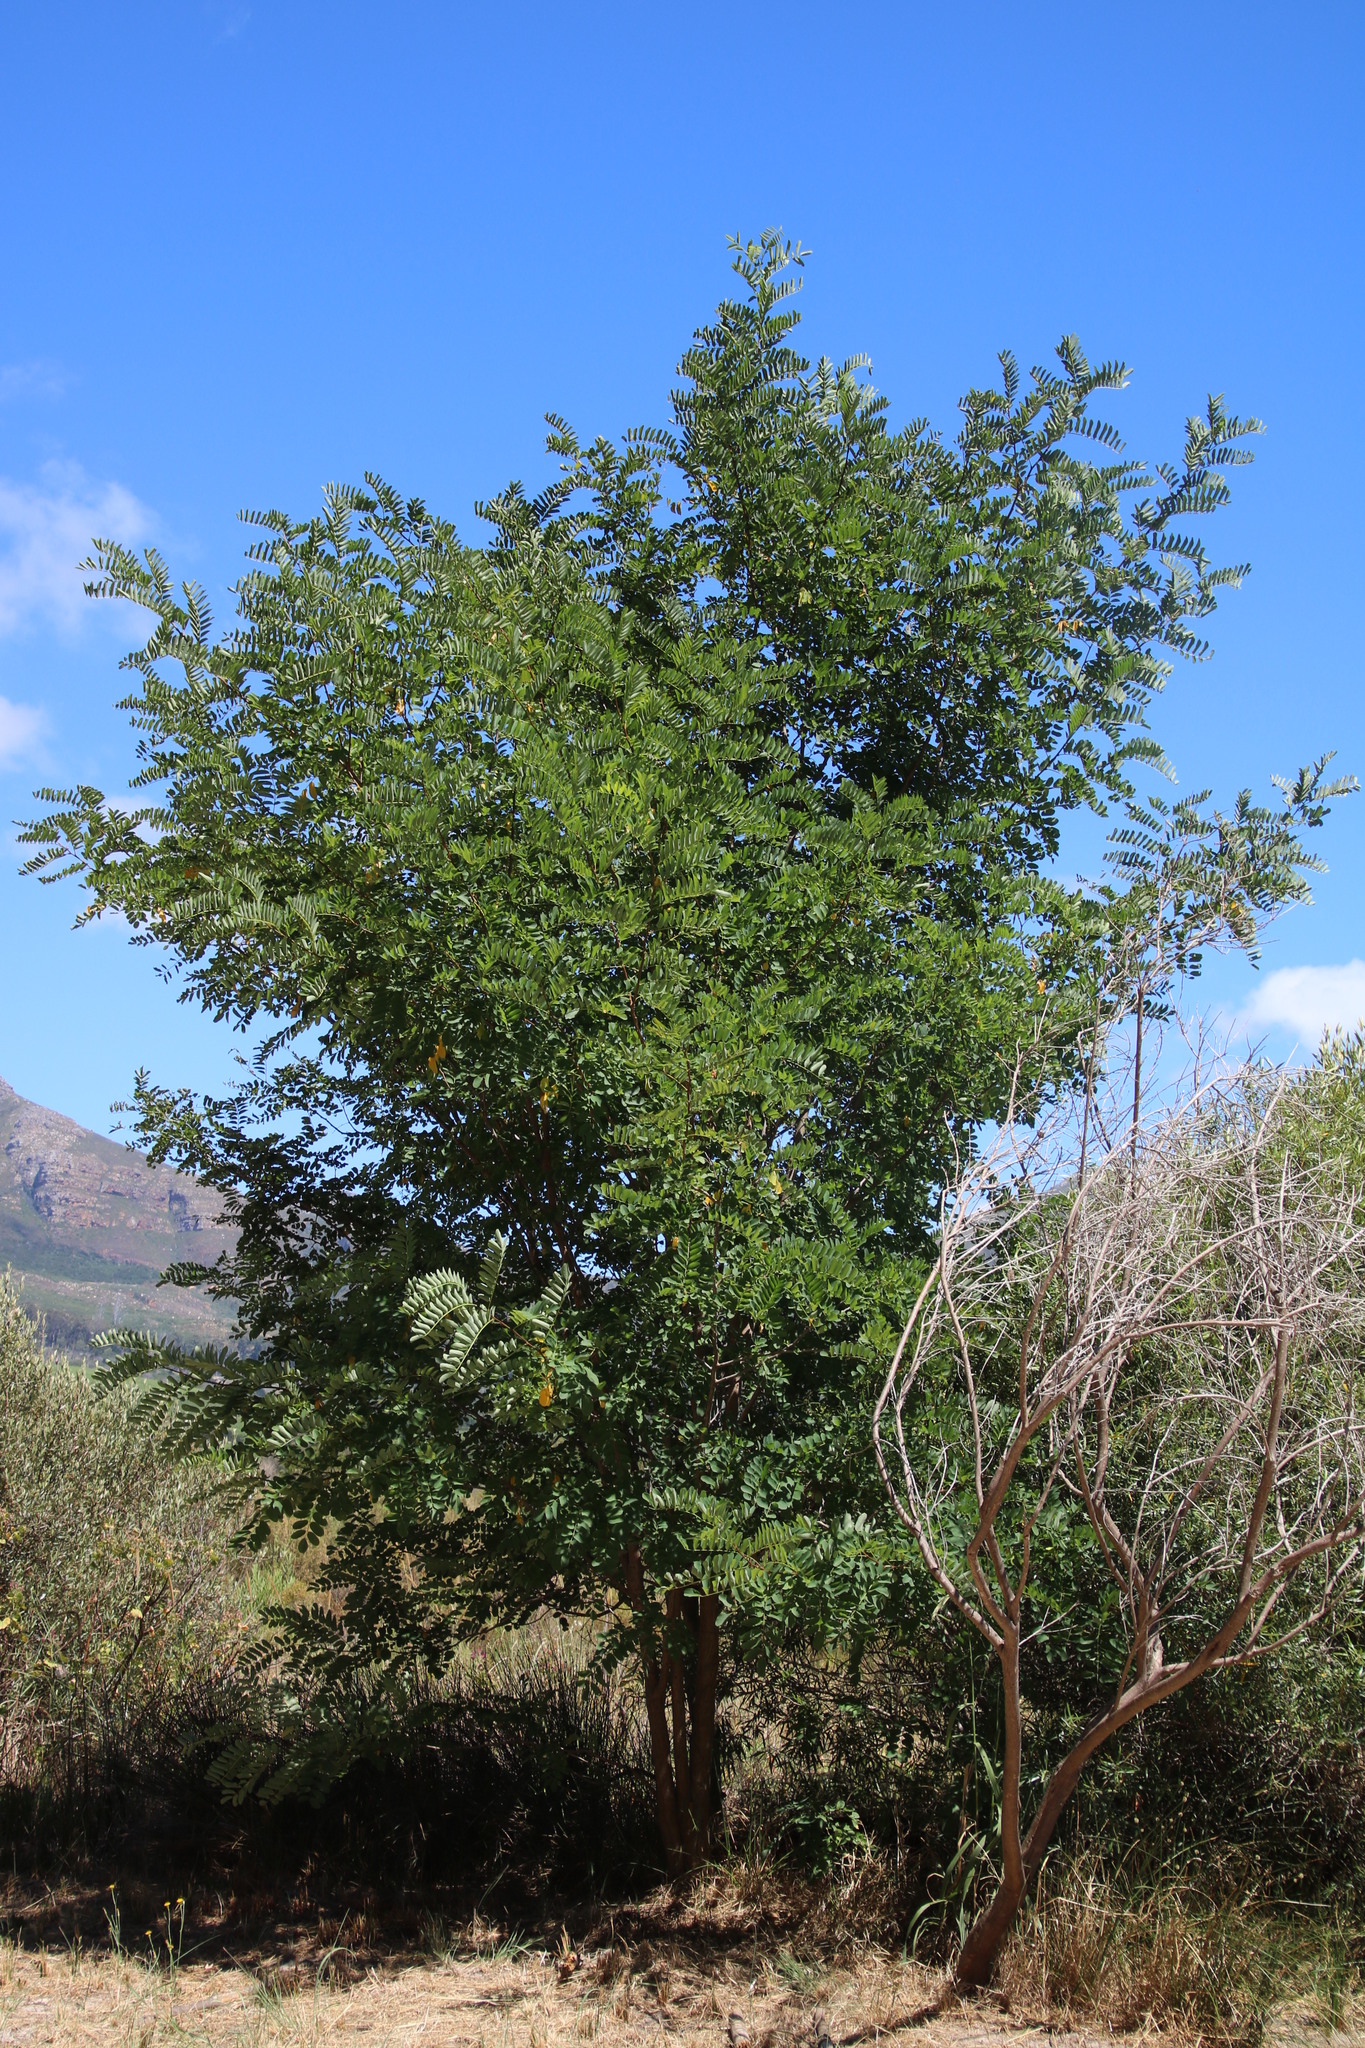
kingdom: Plantae
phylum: Tracheophyta
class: Magnoliopsida
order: Fabales
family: Fabaceae
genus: Robinia
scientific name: Robinia pseudoacacia
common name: Black locust
